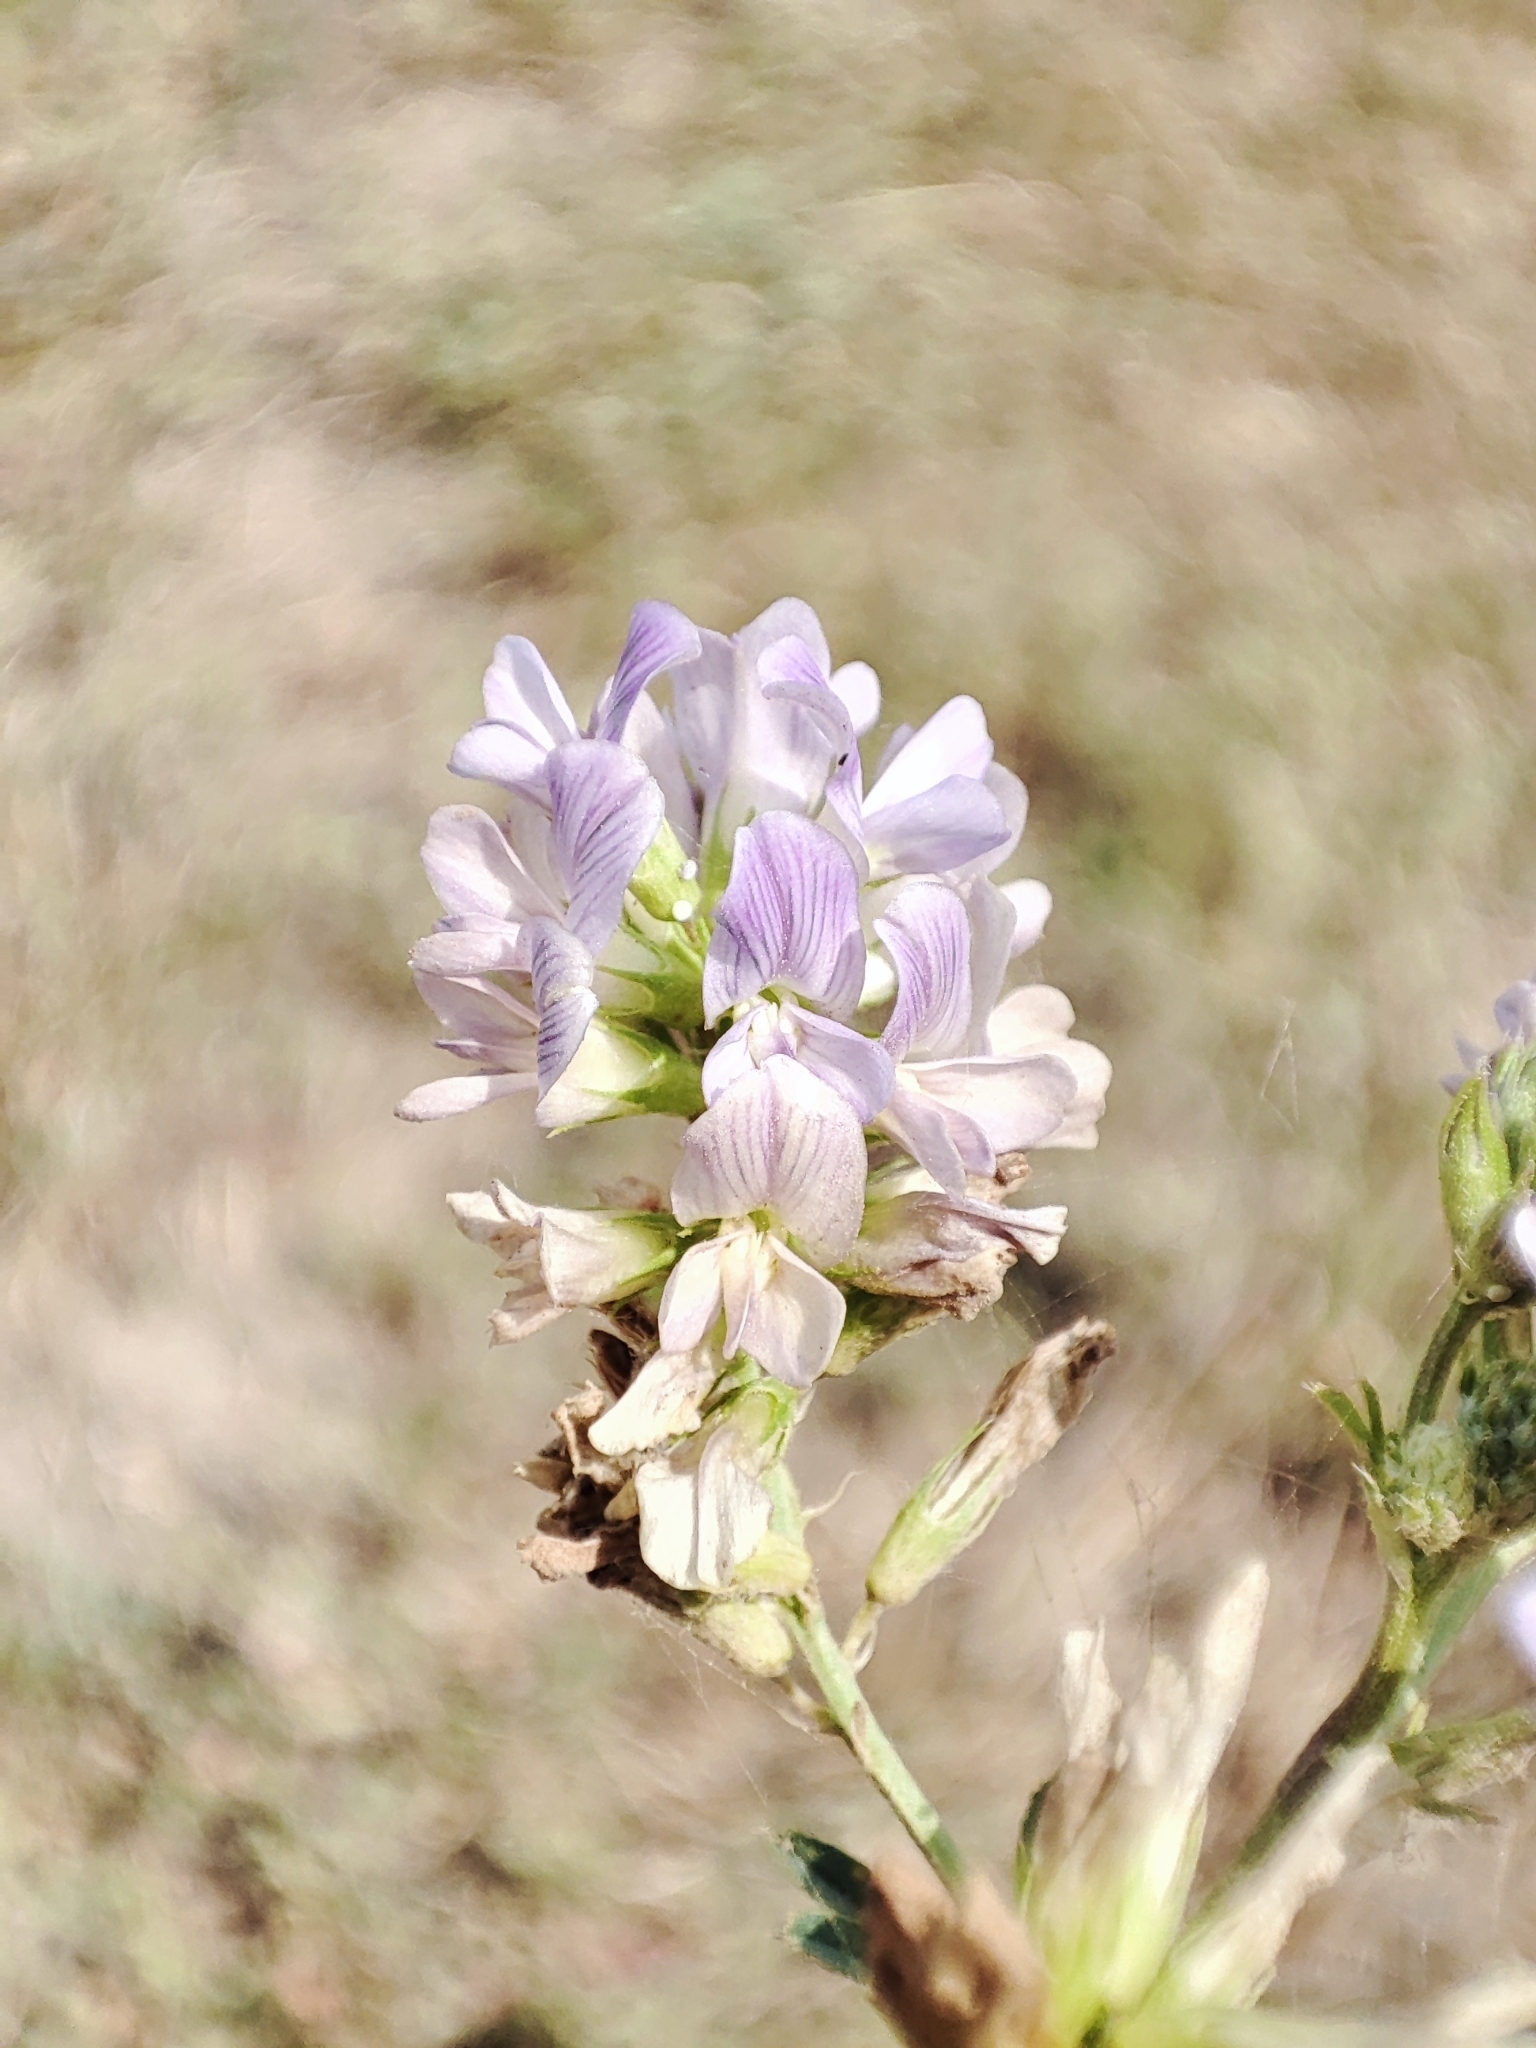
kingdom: Plantae
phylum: Tracheophyta
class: Magnoliopsida
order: Fabales
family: Fabaceae
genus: Medicago
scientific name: Medicago sativa
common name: Alfalfa
